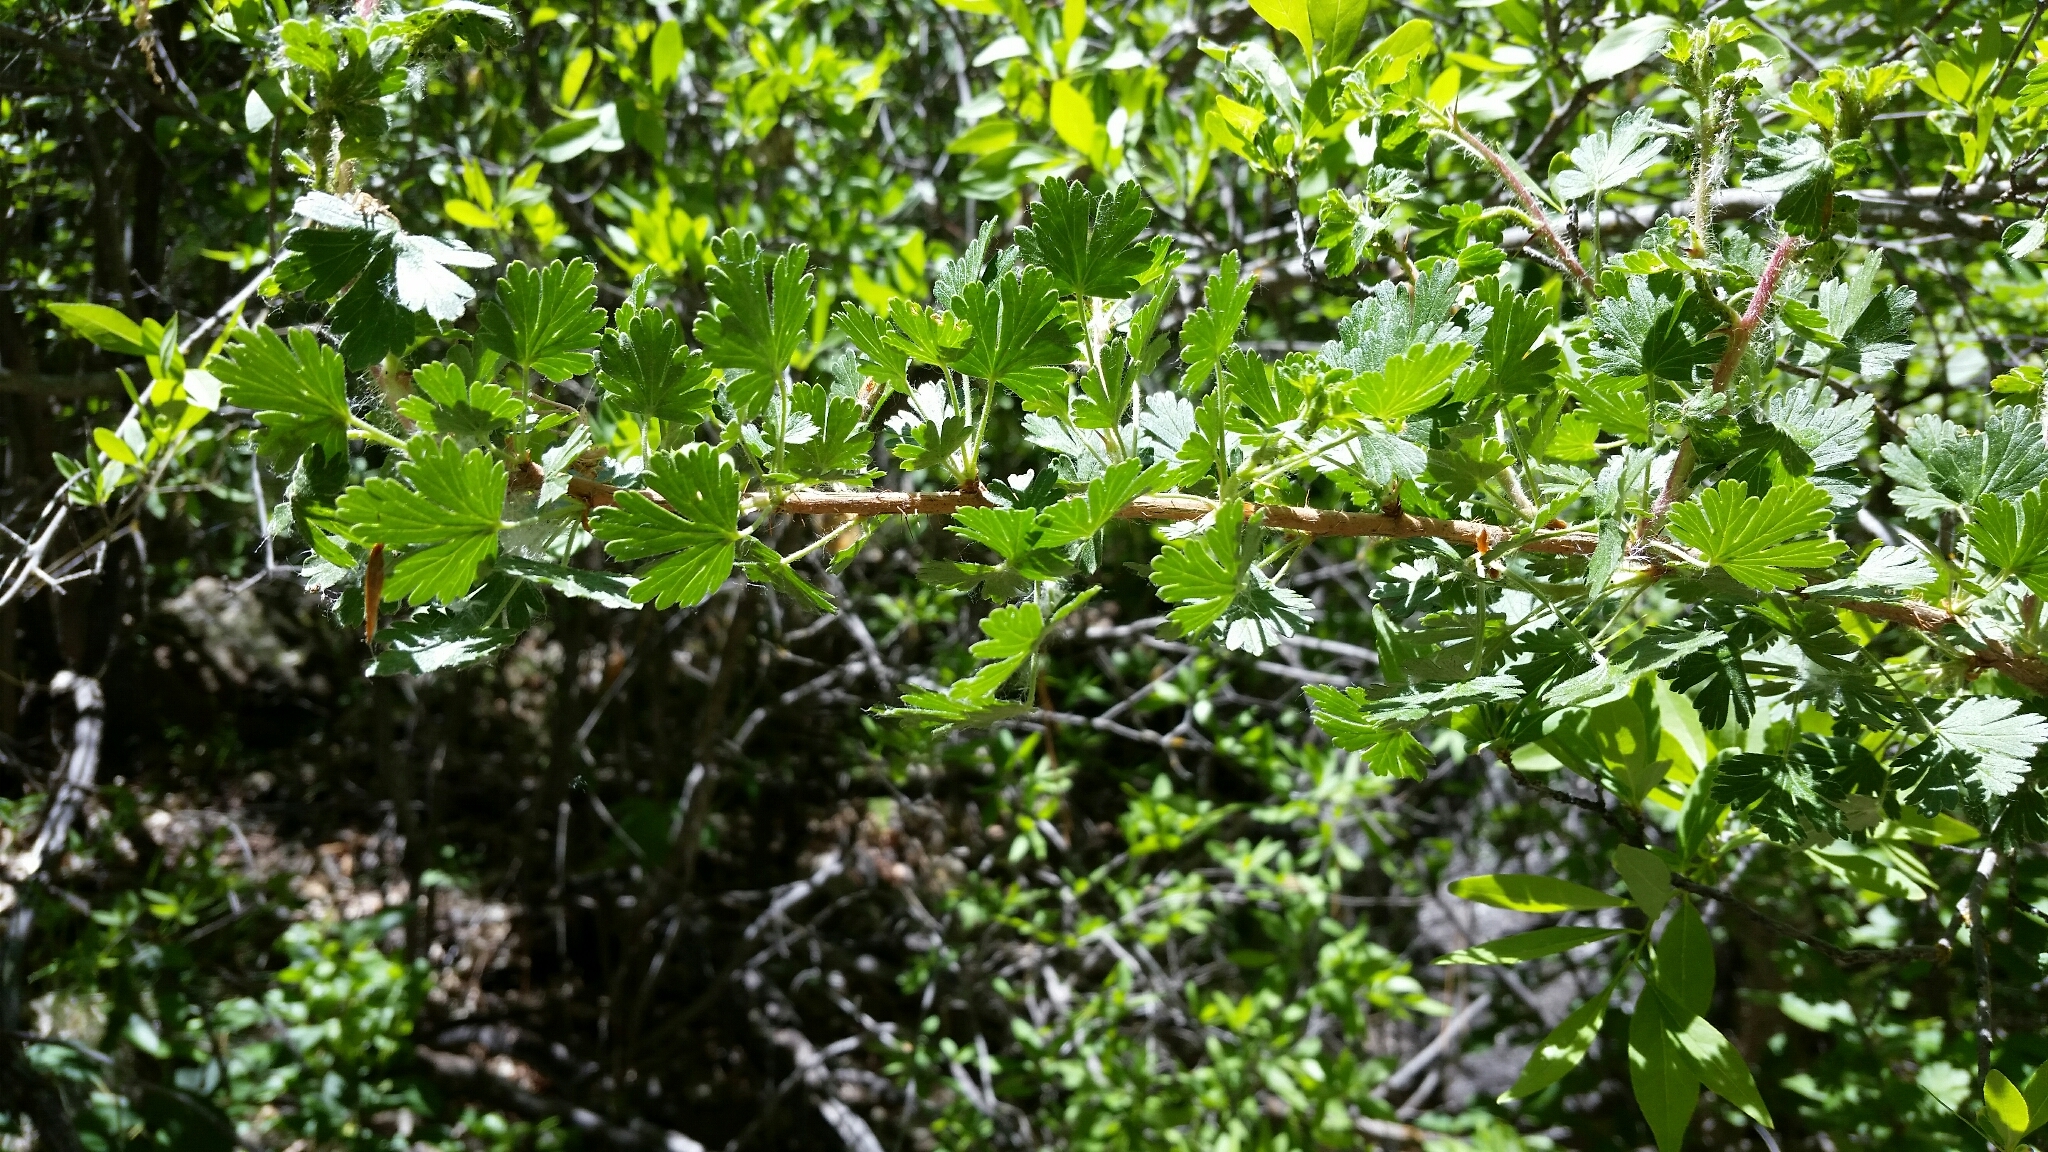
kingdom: Plantae
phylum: Tracheophyta
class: Magnoliopsida
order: Saxifragales
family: Grossulariaceae
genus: Ribes
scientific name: Ribes inerme
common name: White-stem gooseberry
